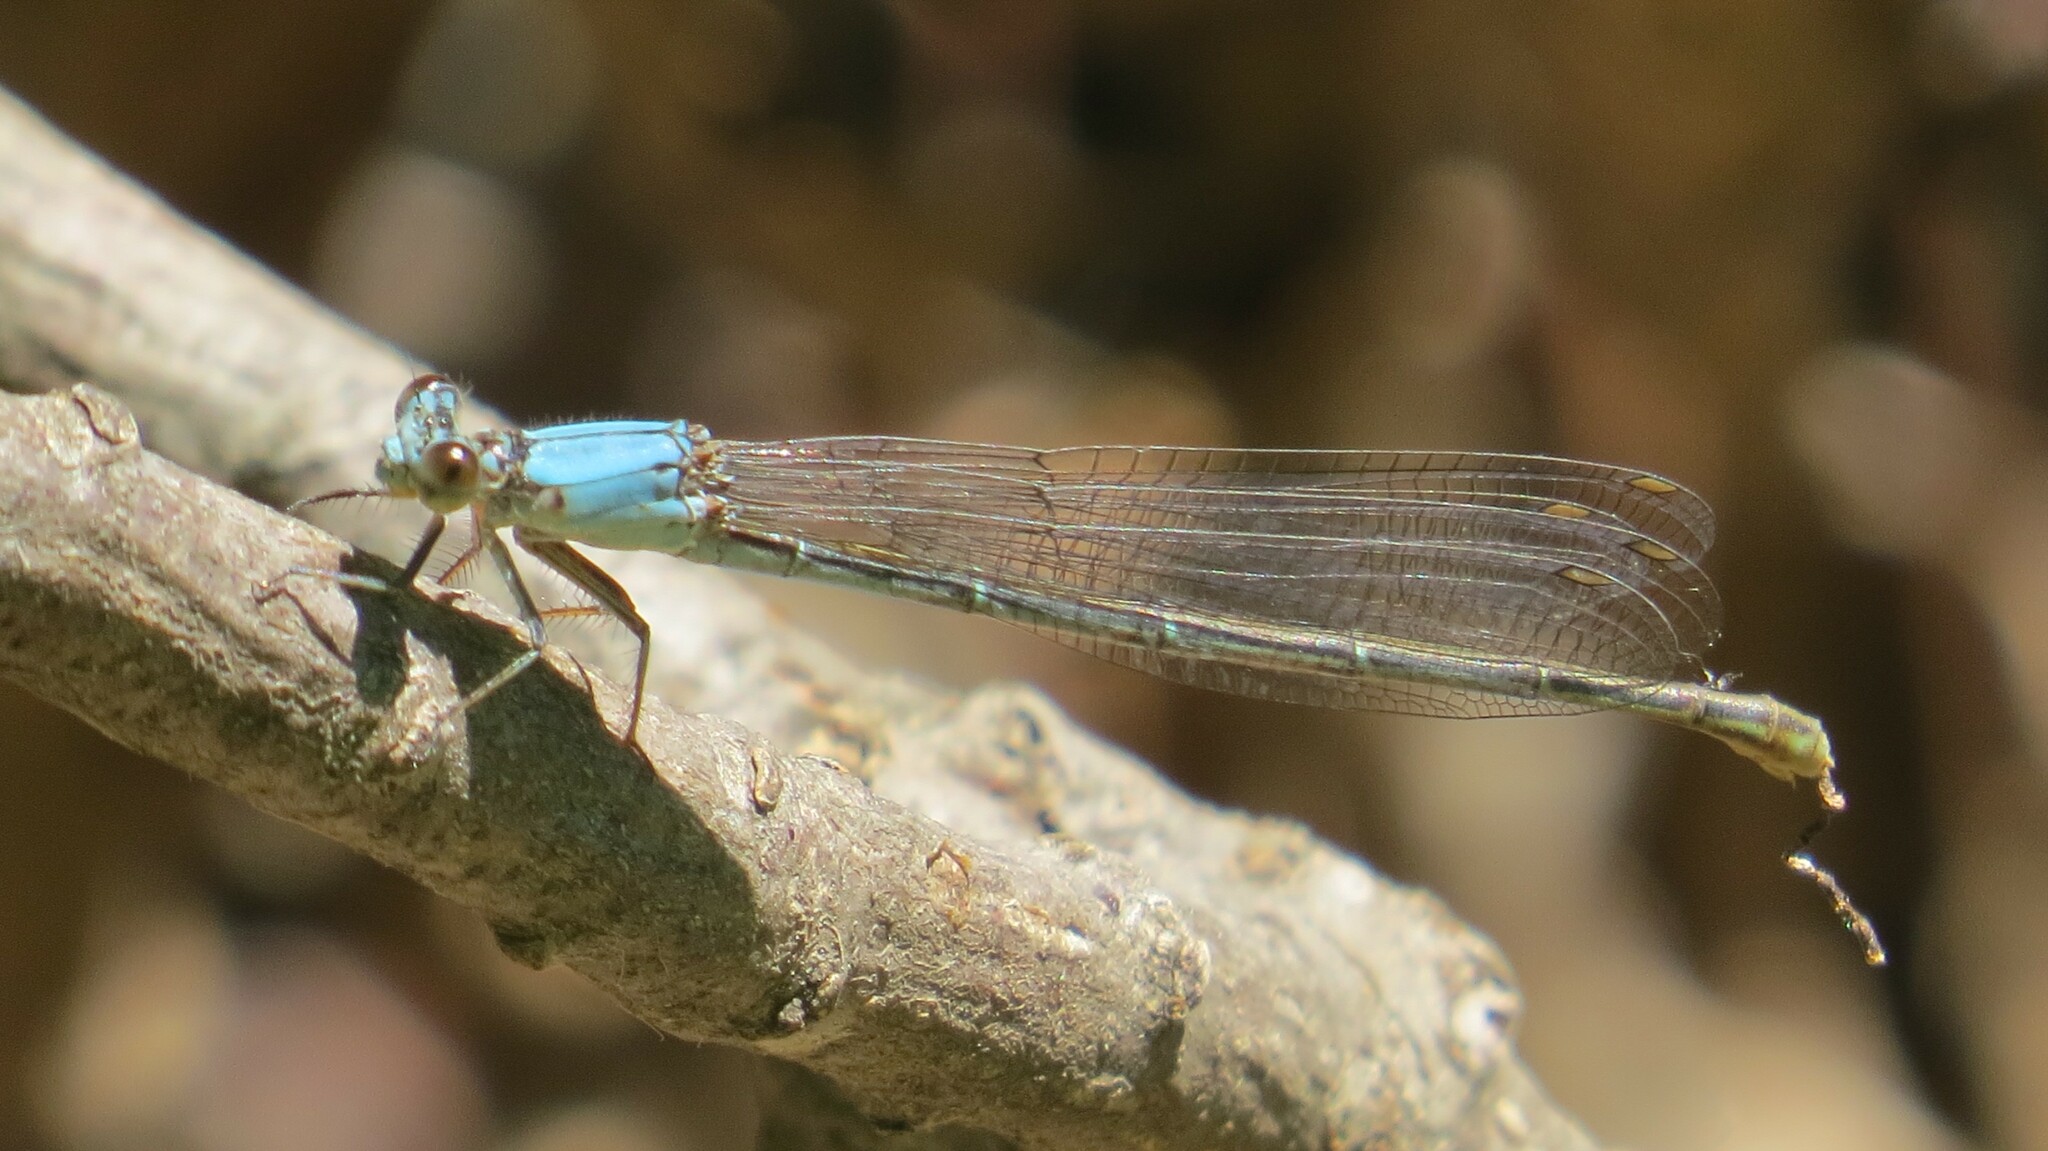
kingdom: Animalia
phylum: Arthropoda
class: Insecta
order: Odonata
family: Coenagrionidae
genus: Argia
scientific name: Argia apicalis
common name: Blue-fronted dancer
